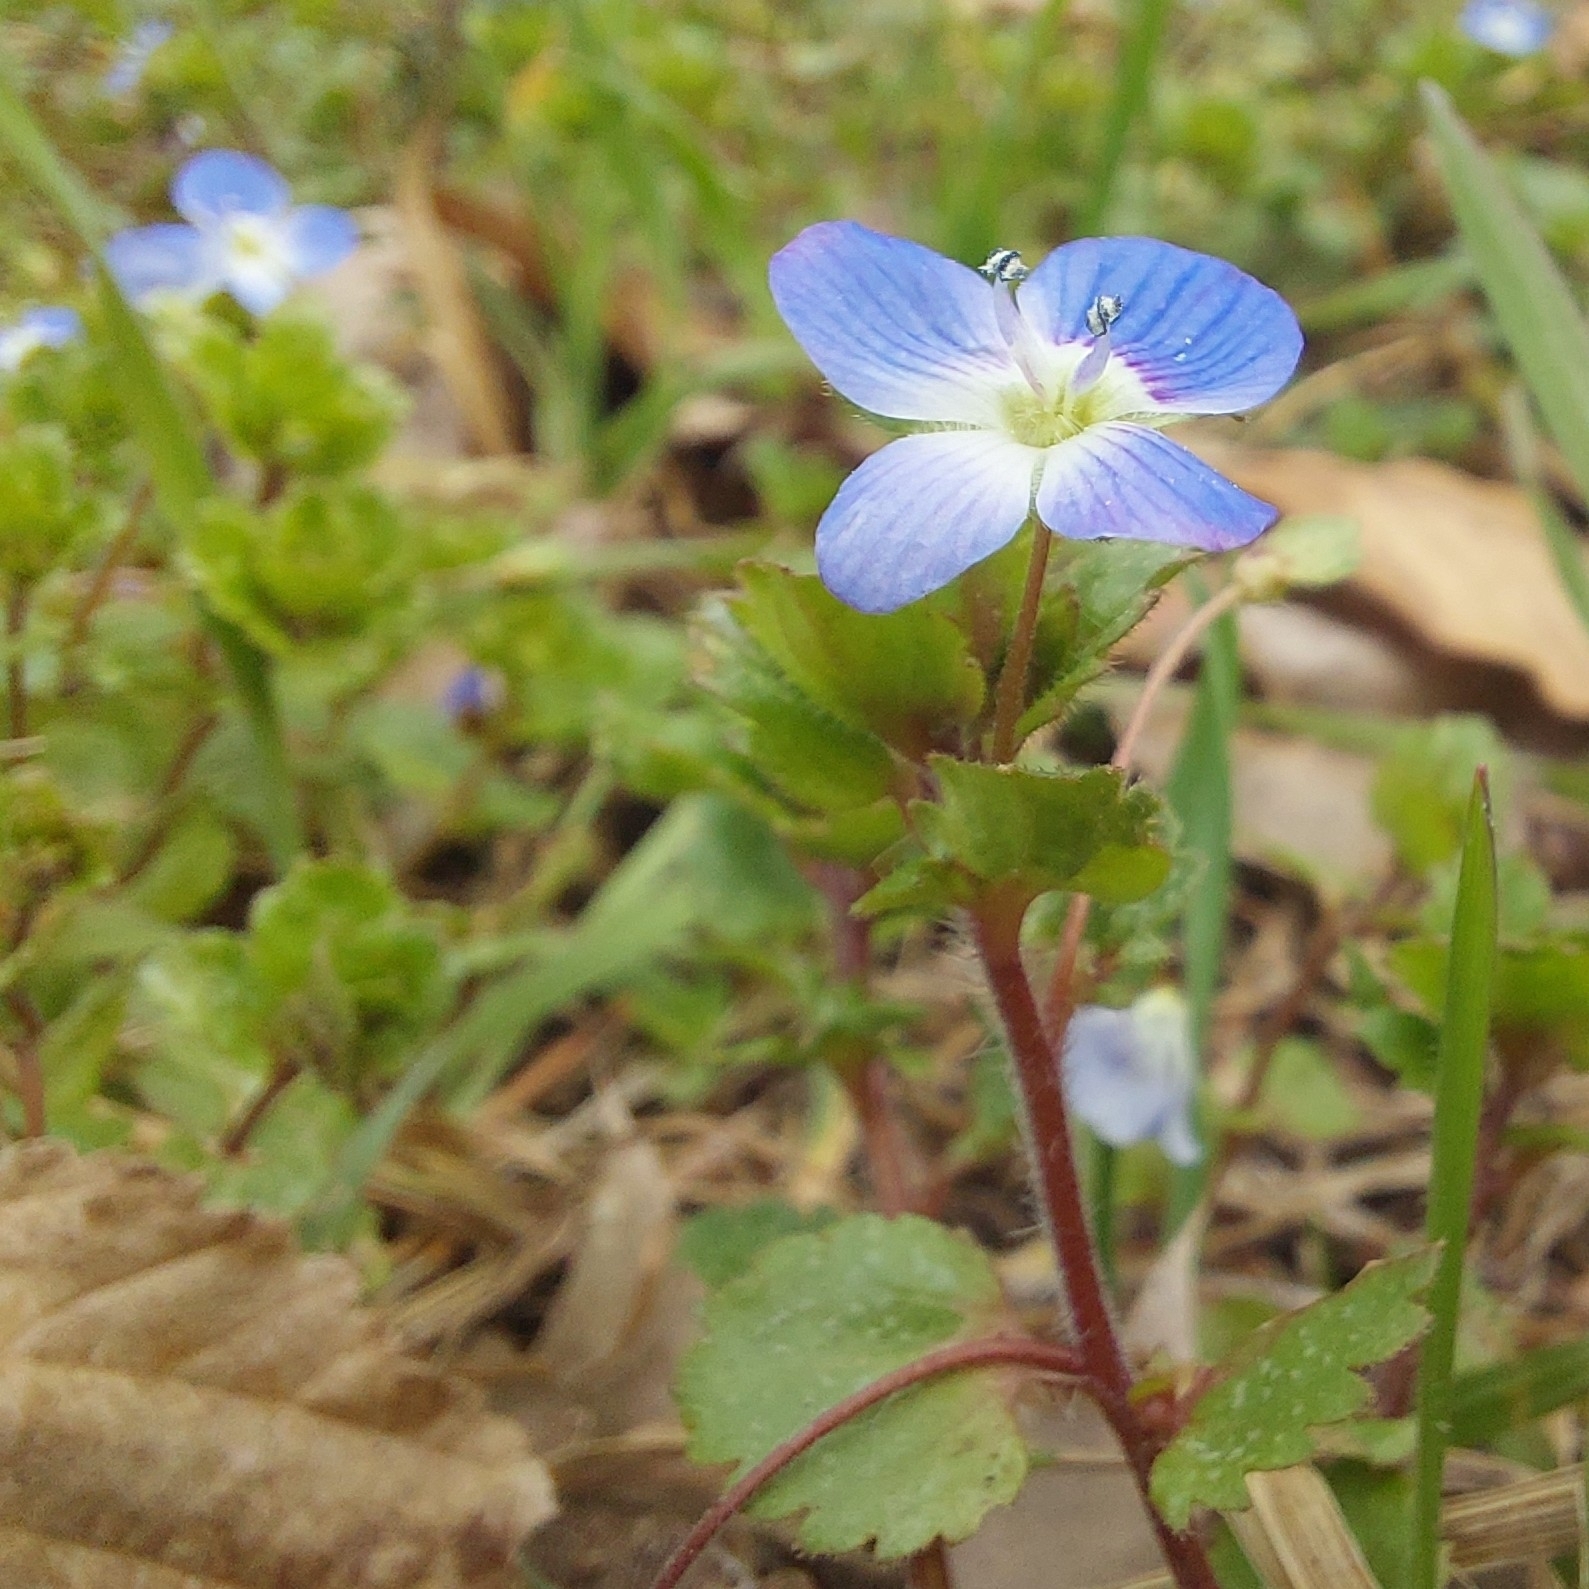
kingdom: Plantae
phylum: Tracheophyta
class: Magnoliopsida
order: Lamiales
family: Plantaginaceae
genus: Veronica
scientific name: Veronica persica
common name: Common field-speedwell
